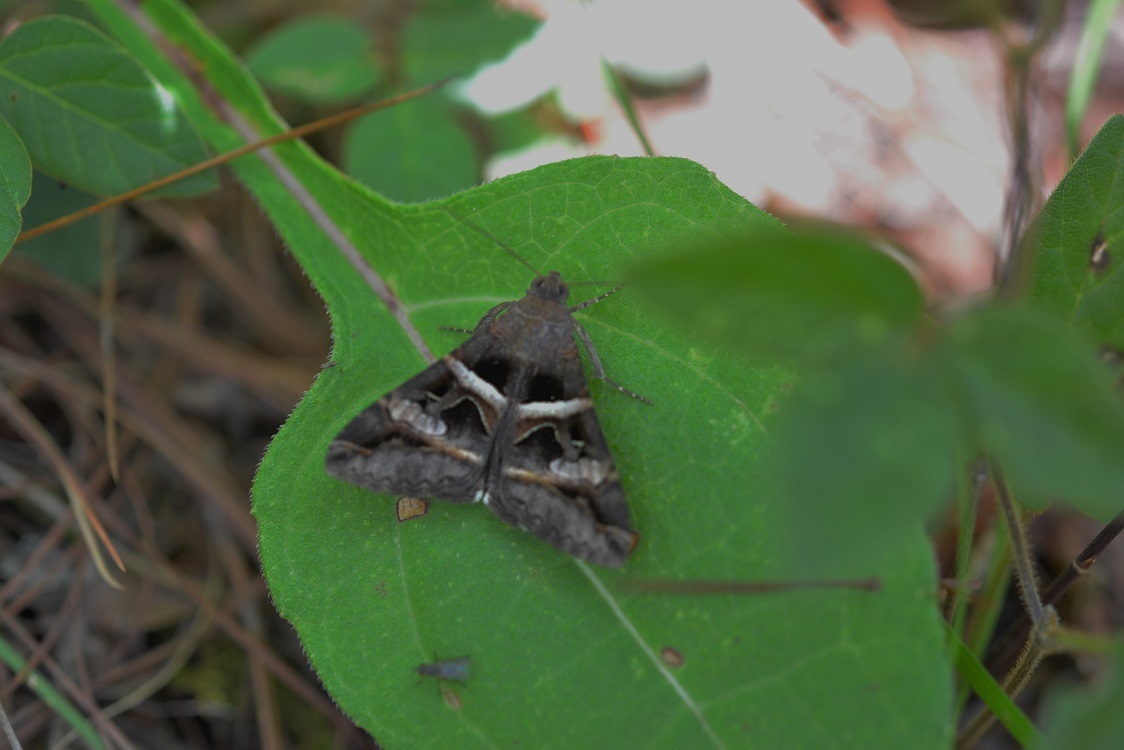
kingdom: Animalia
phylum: Arthropoda
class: Insecta
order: Lepidoptera
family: Erebidae
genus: Melipotis
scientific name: Melipotis perpendicularis
